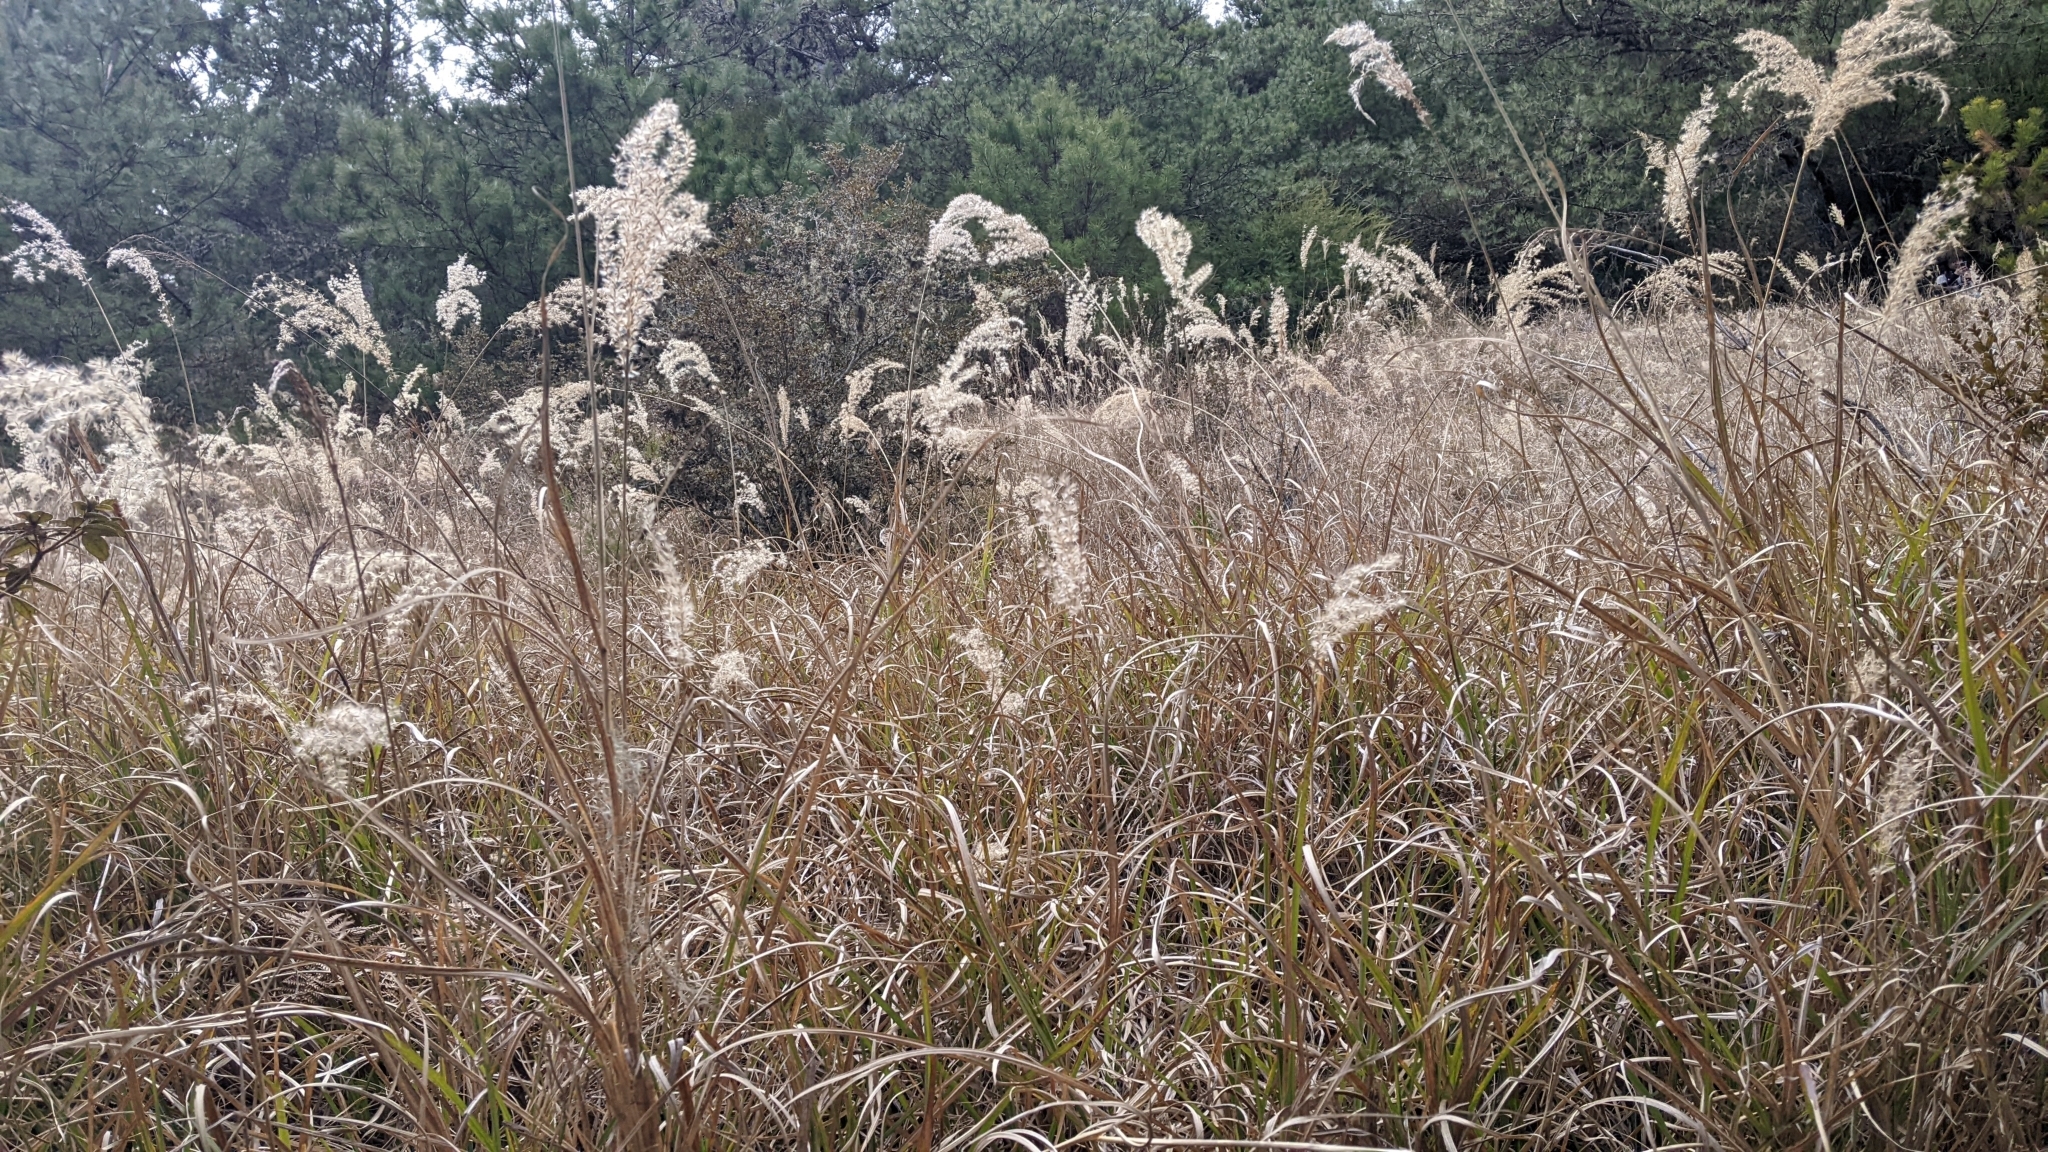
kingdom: Plantae
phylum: Tracheophyta
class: Liliopsida
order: Poales
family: Poaceae
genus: Miscanthus
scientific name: Miscanthus sinensis
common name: Chinese silvergrass
